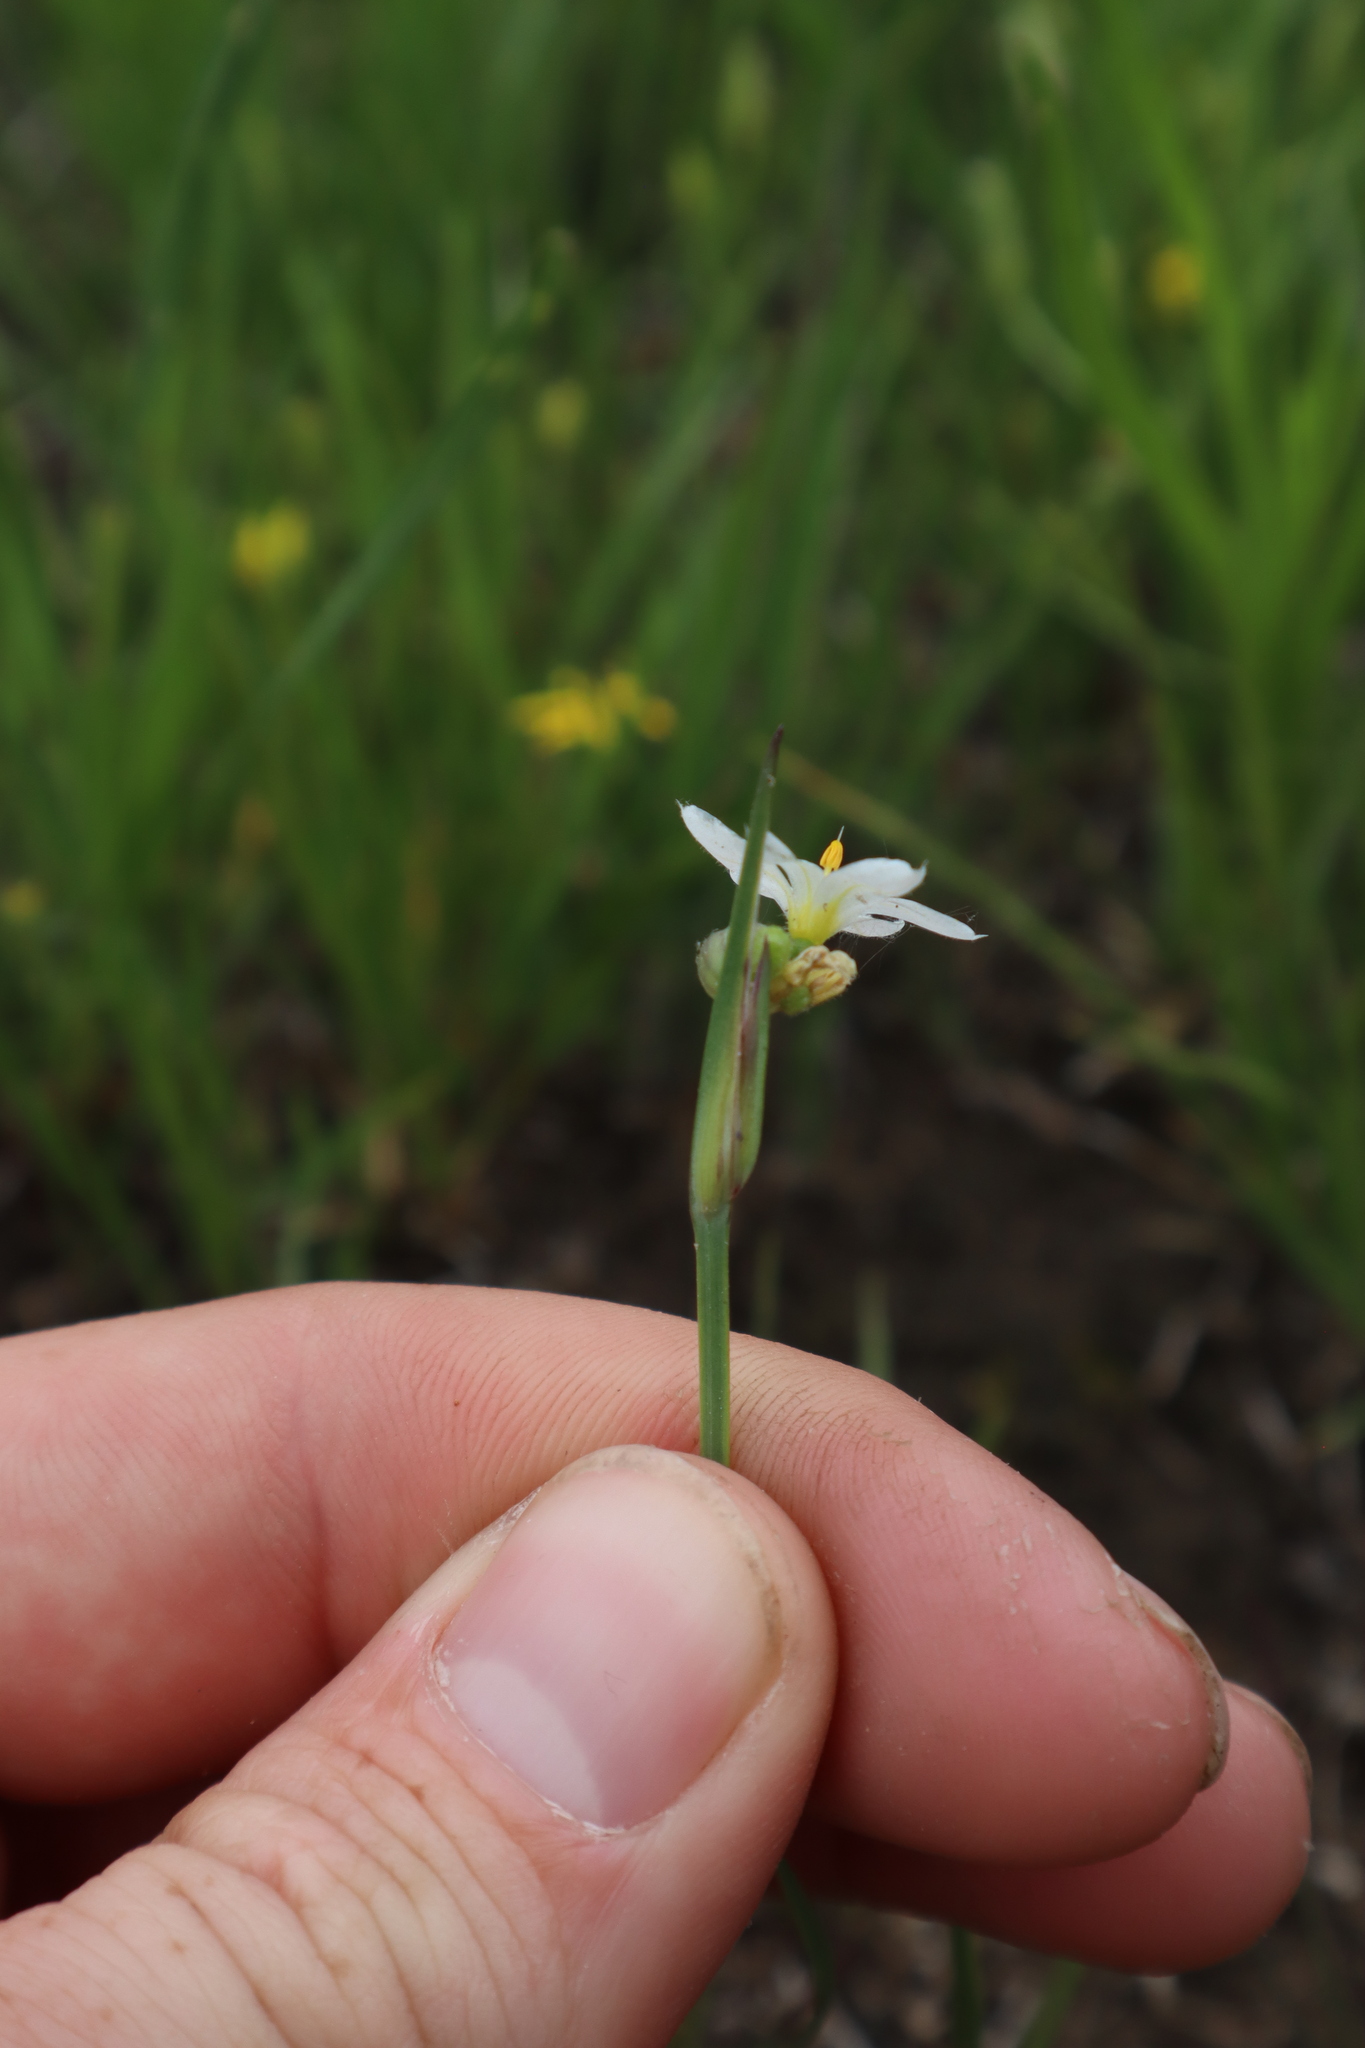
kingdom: Plantae
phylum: Tracheophyta
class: Liliopsida
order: Asparagales
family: Iridaceae
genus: Sisyrinchium
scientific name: Sisyrinchium campestre
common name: Prairie blue-eyed-grass
